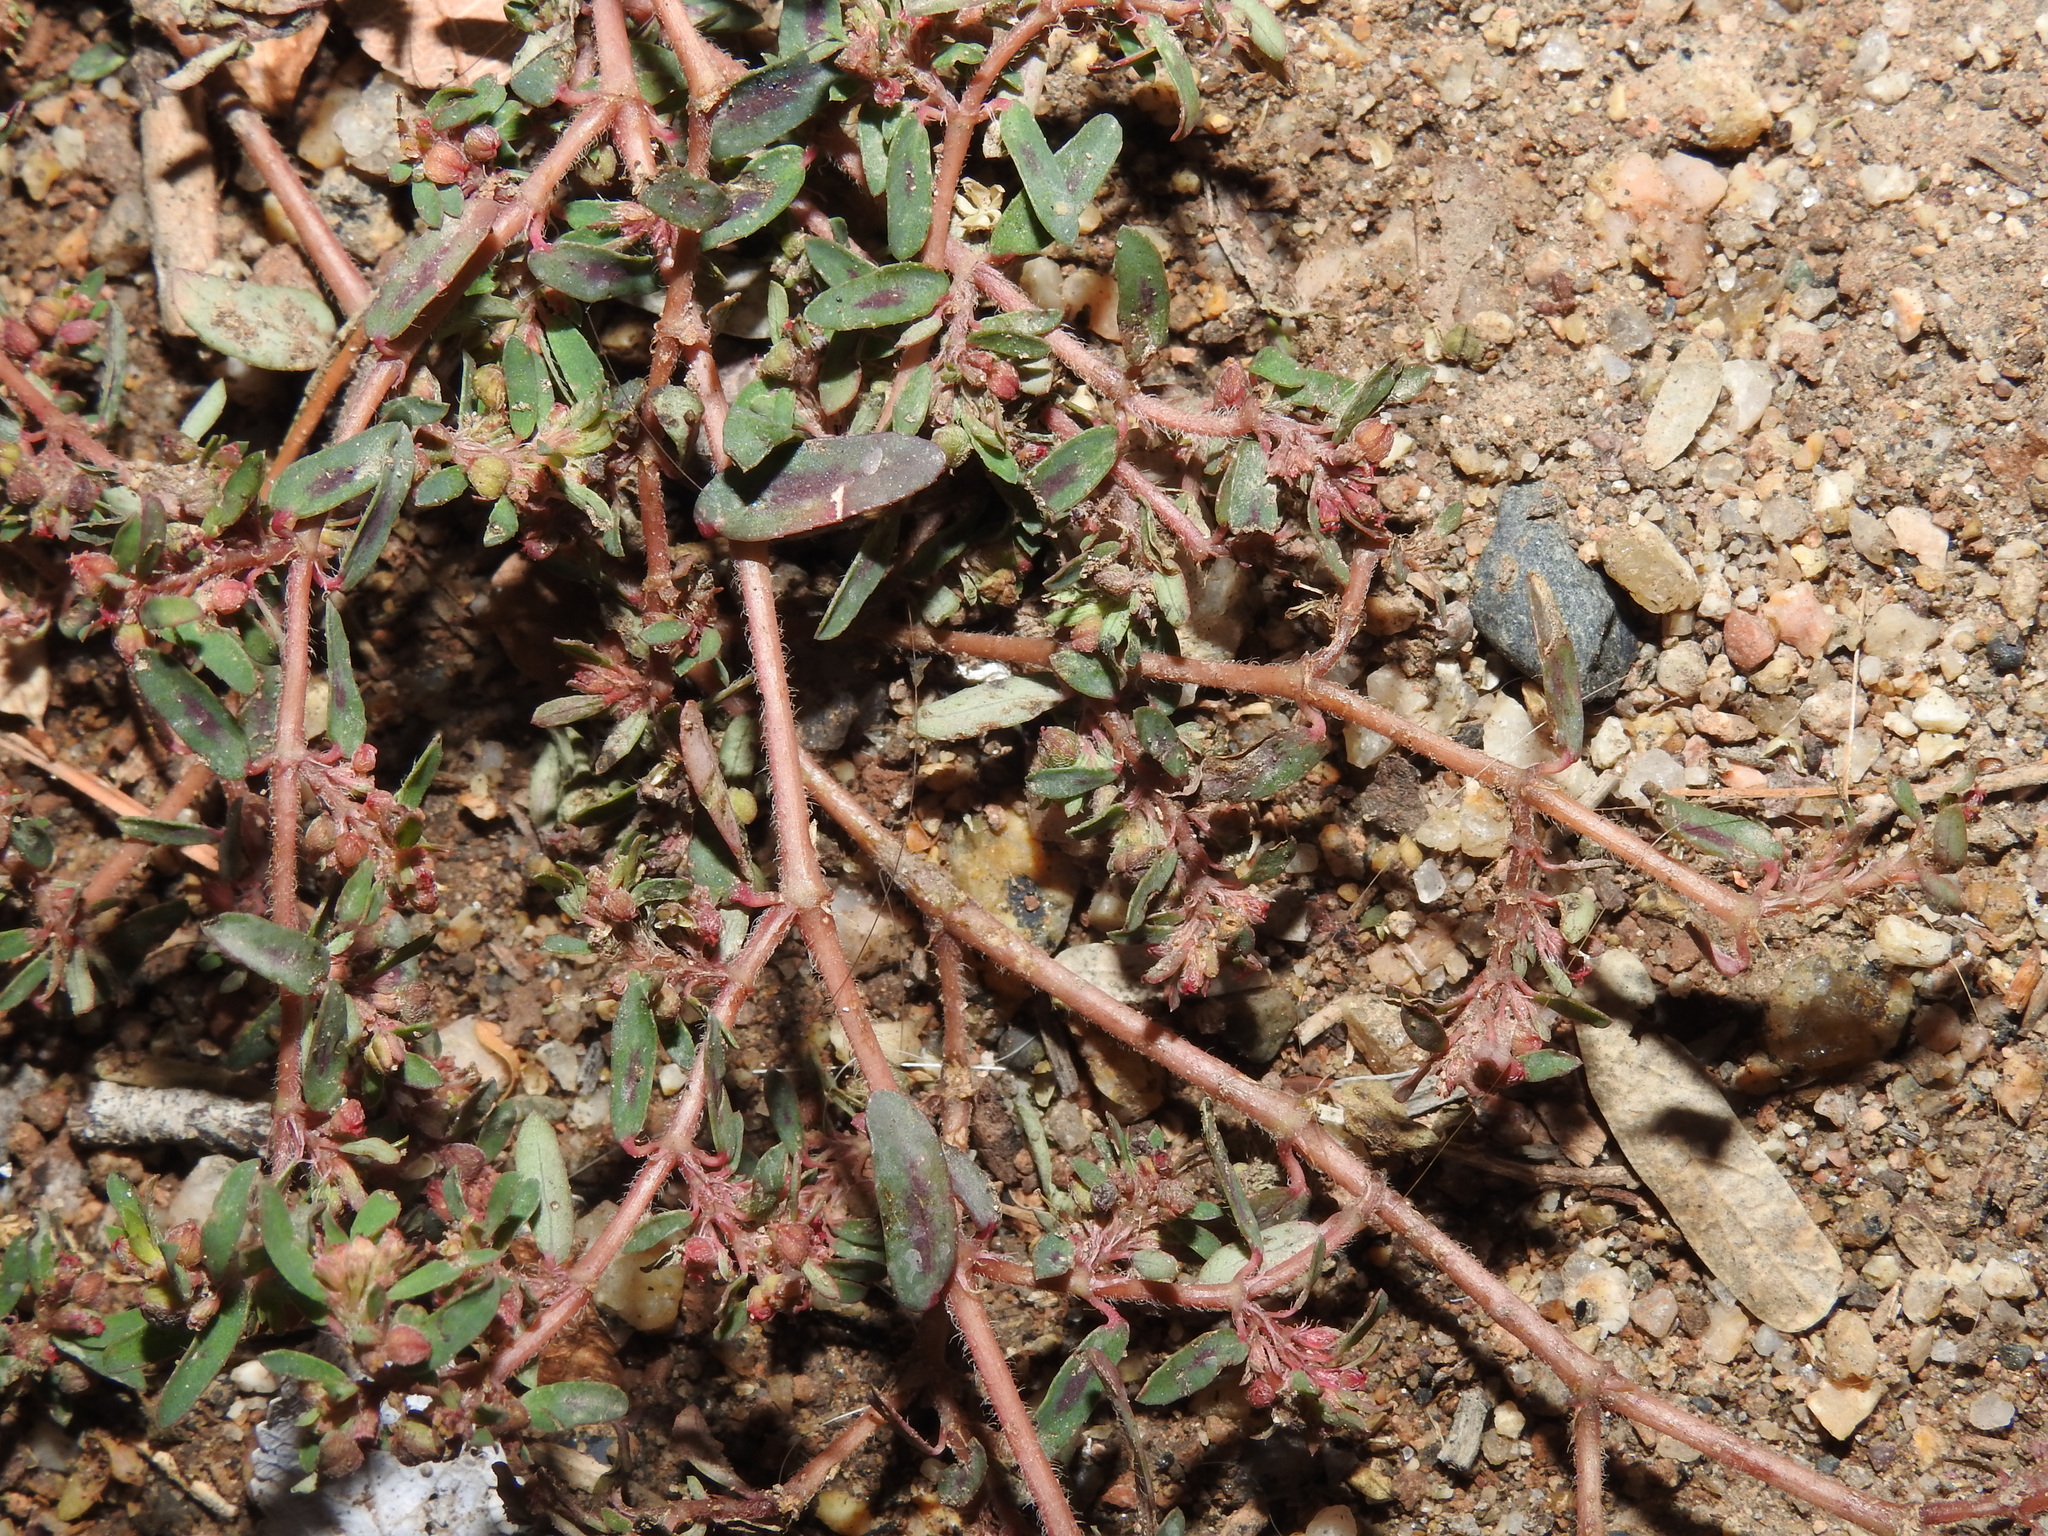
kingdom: Plantae
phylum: Tracheophyta
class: Magnoliopsida
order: Malpighiales
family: Euphorbiaceae
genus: Euphorbia
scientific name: Euphorbia maculata
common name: Spotted spurge
